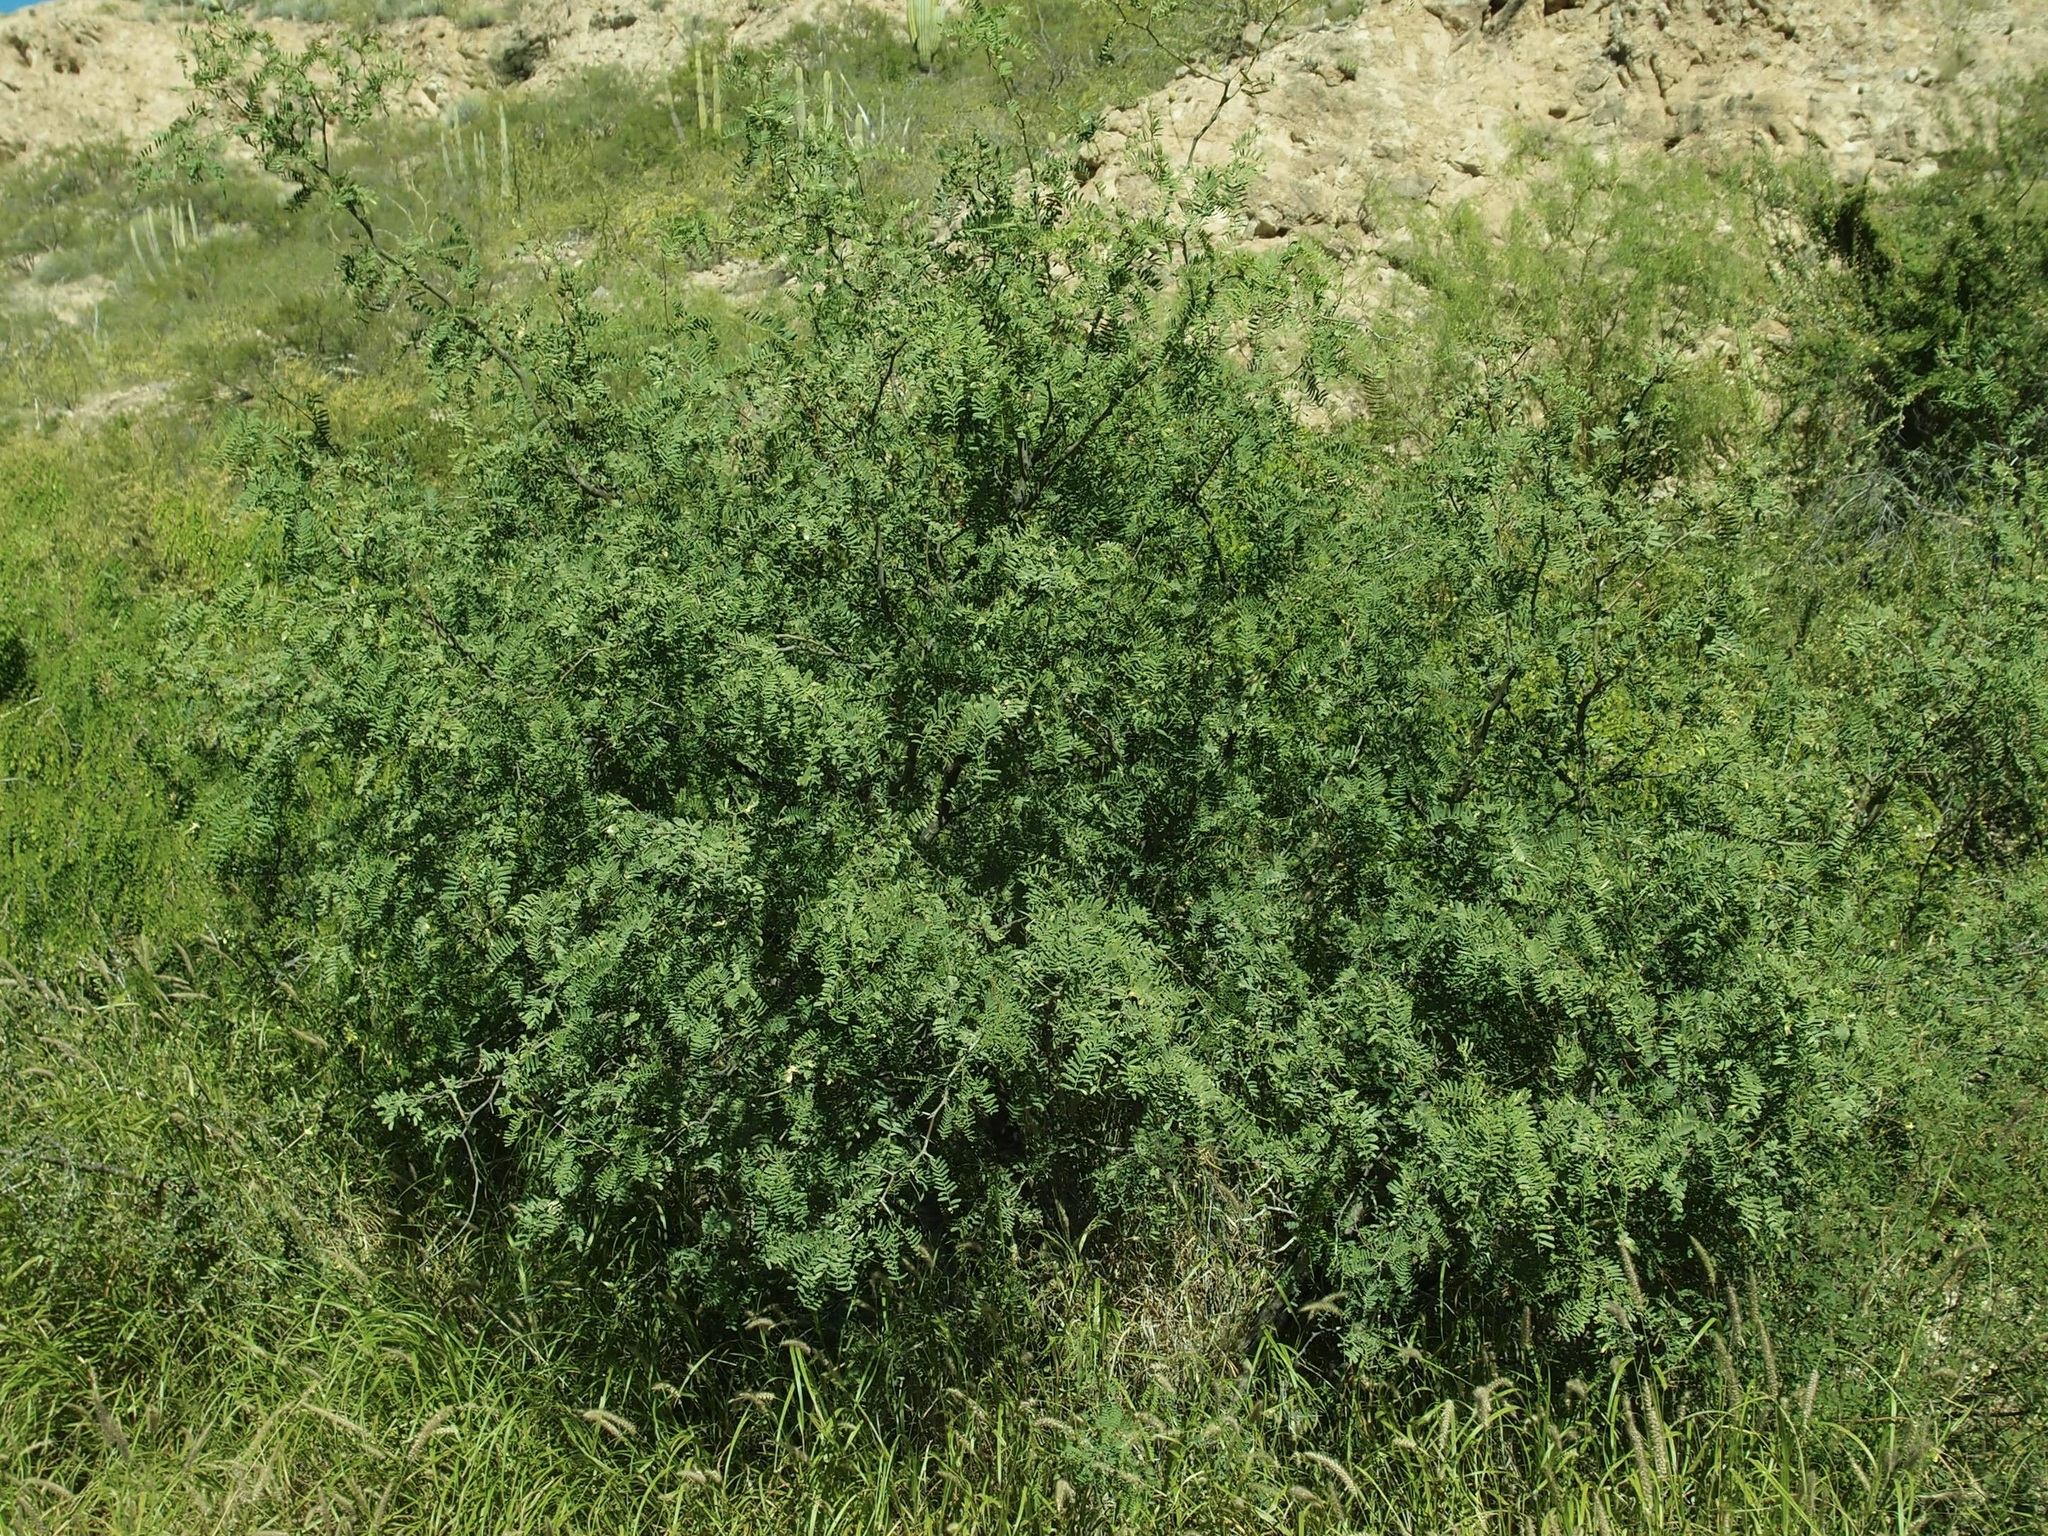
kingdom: Plantae
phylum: Tracheophyta
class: Magnoliopsida
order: Fabales
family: Fabaceae
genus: Prosopis
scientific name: Prosopis yaquiana
